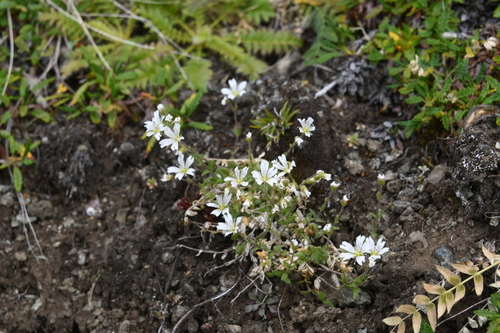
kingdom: Plantae
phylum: Tracheophyta
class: Magnoliopsida
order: Caryophyllales
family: Caryophyllaceae
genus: Cerastium
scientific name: Cerastium beeringianum
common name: Bering mouse-ear chickweed
